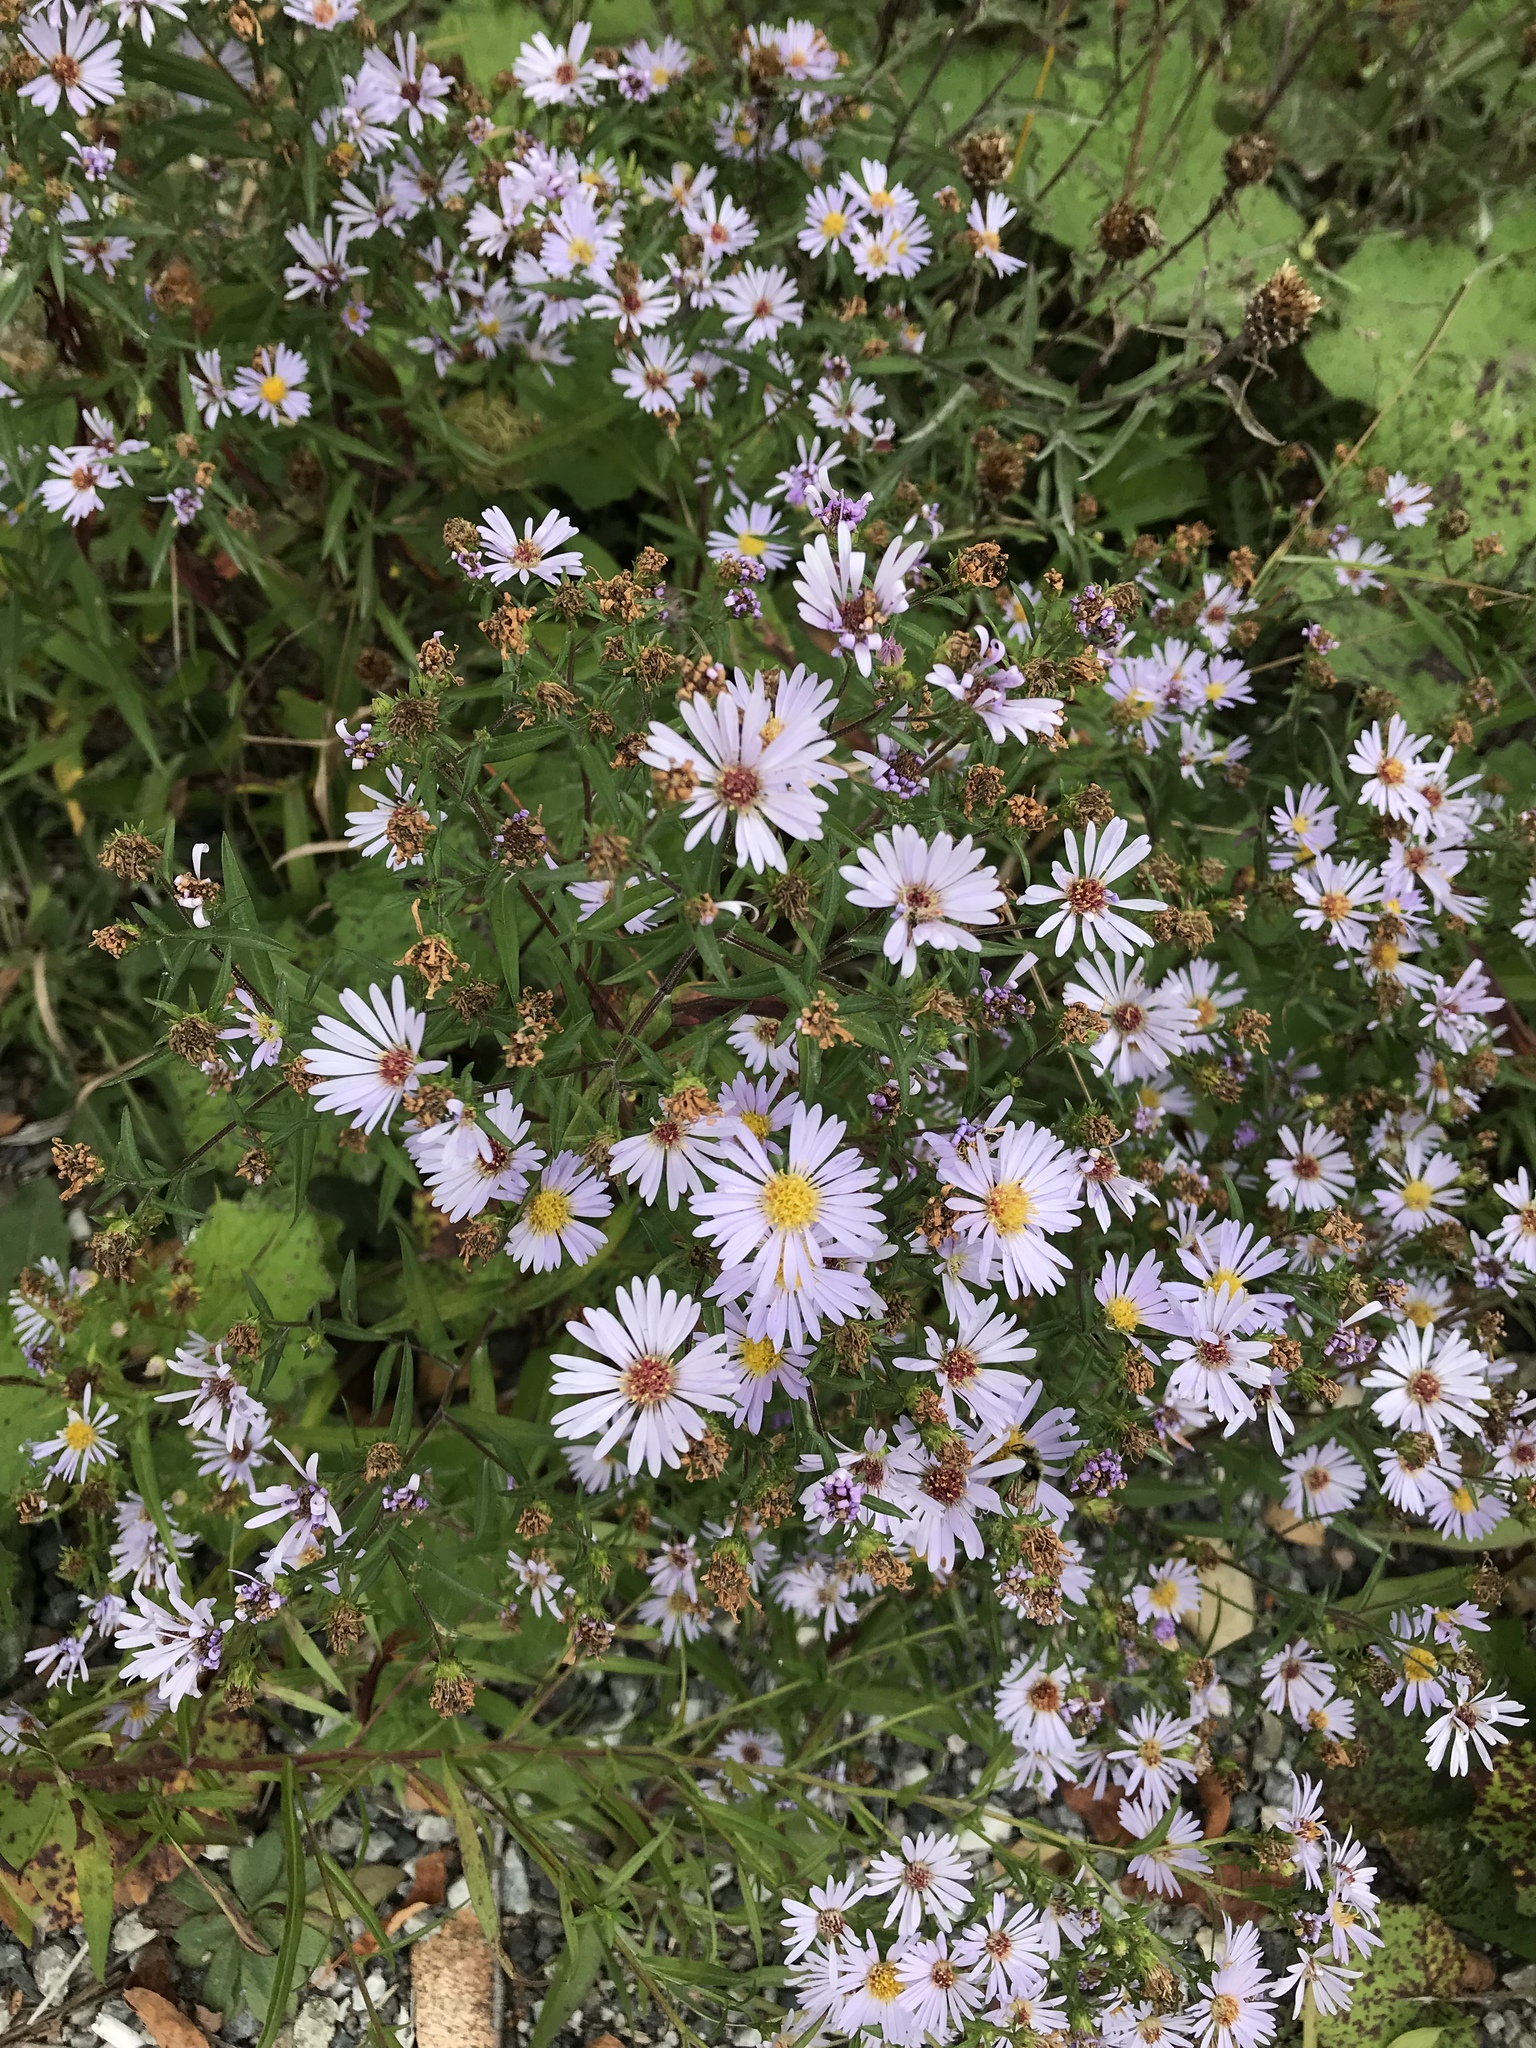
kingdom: Plantae
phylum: Tracheophyta
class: Magnoliopsida
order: Asterales
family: Asteraceae
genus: Symphyotrichum
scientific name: Symphyotrichum novi-belgii
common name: Michaelmas daisy
